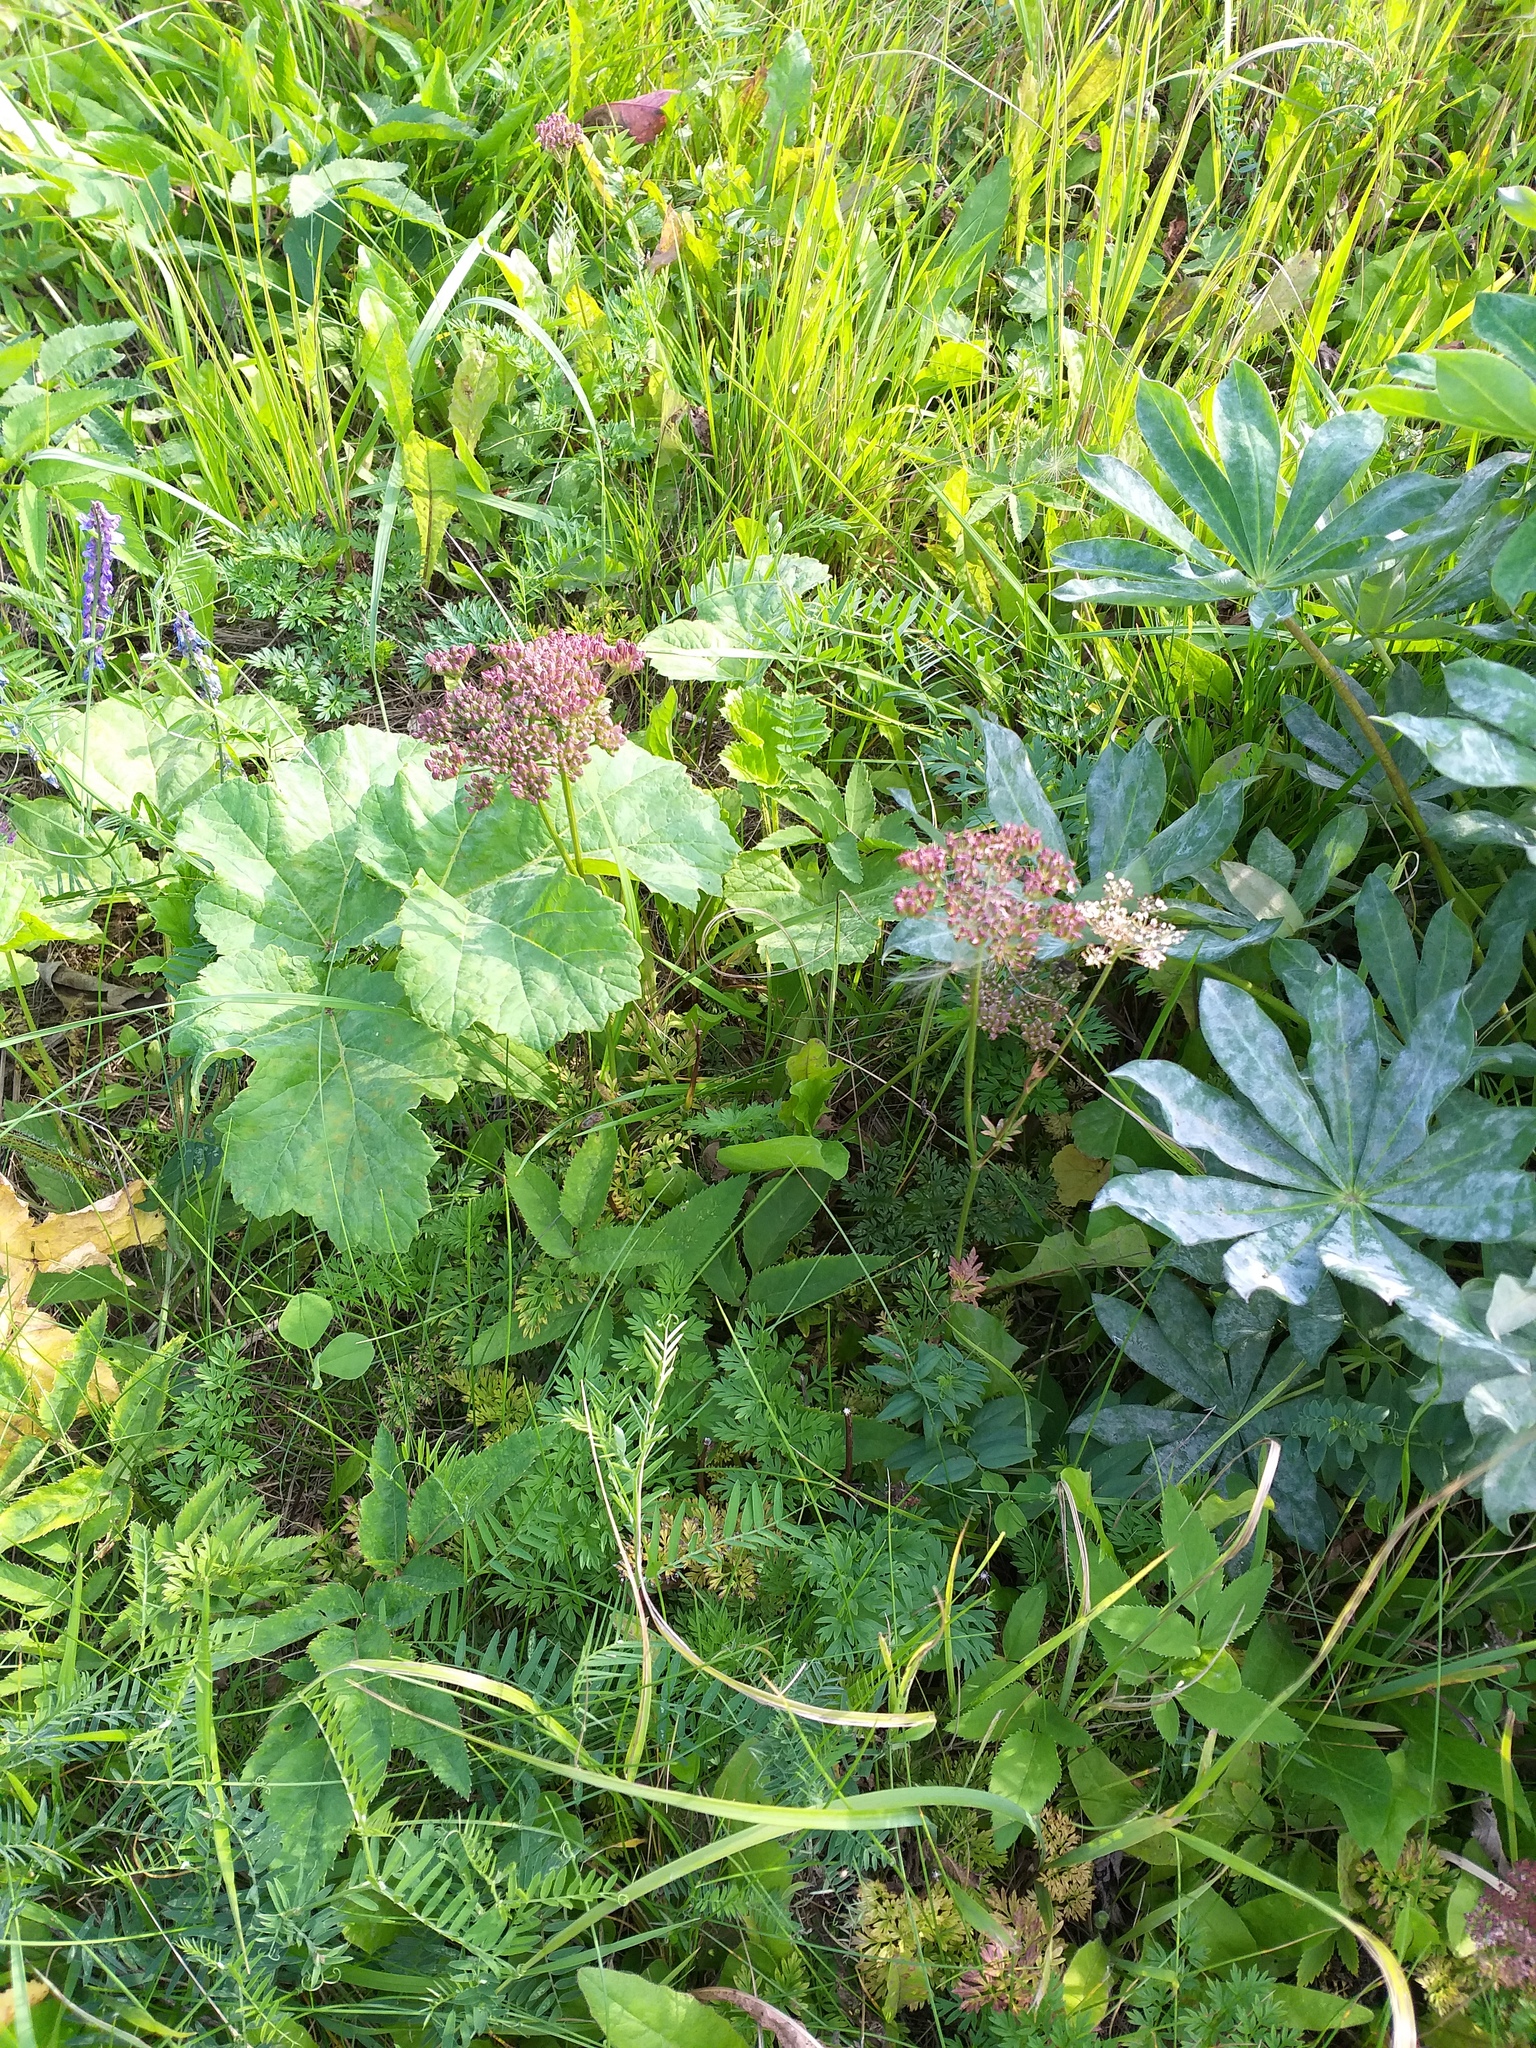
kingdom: Plantae
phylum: Tracheophyta
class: Magnoliopsida
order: Apiales
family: Apiaceae
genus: Selinum
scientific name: Selinum carvifolia
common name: Cambridge milk-parsley
